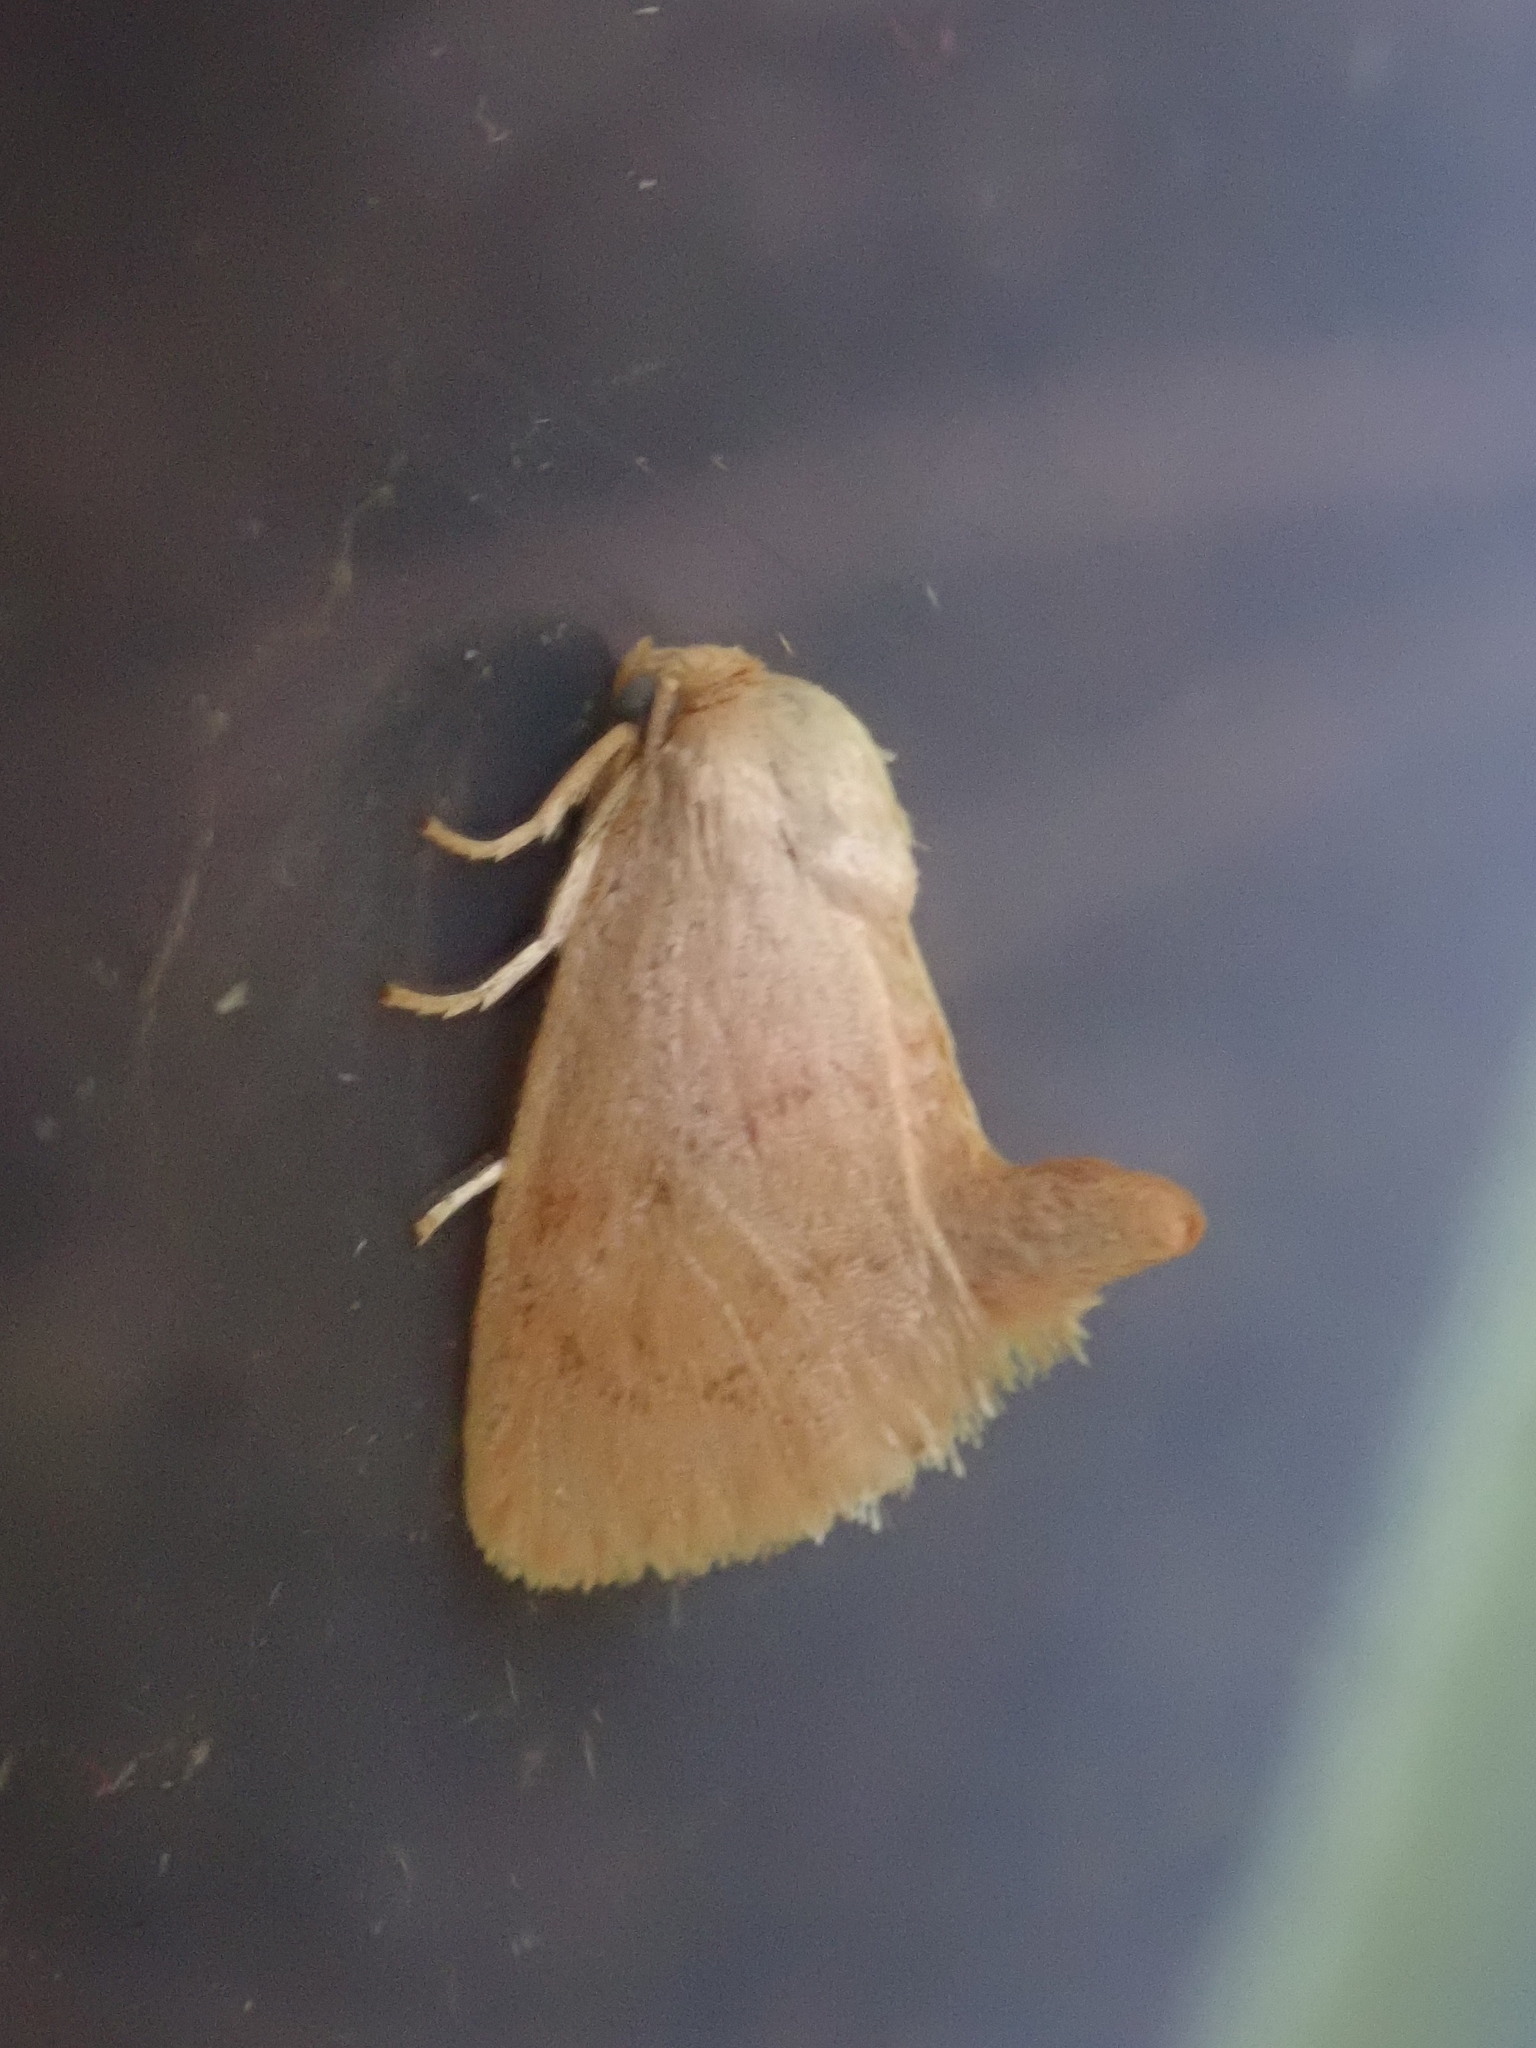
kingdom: Animalia
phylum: Arthropoda
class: Insecta
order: Lepidoptera
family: Limacodidae
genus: Tortricidia
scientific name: Tortricidia pallida
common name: Red-crossed button slug moth
